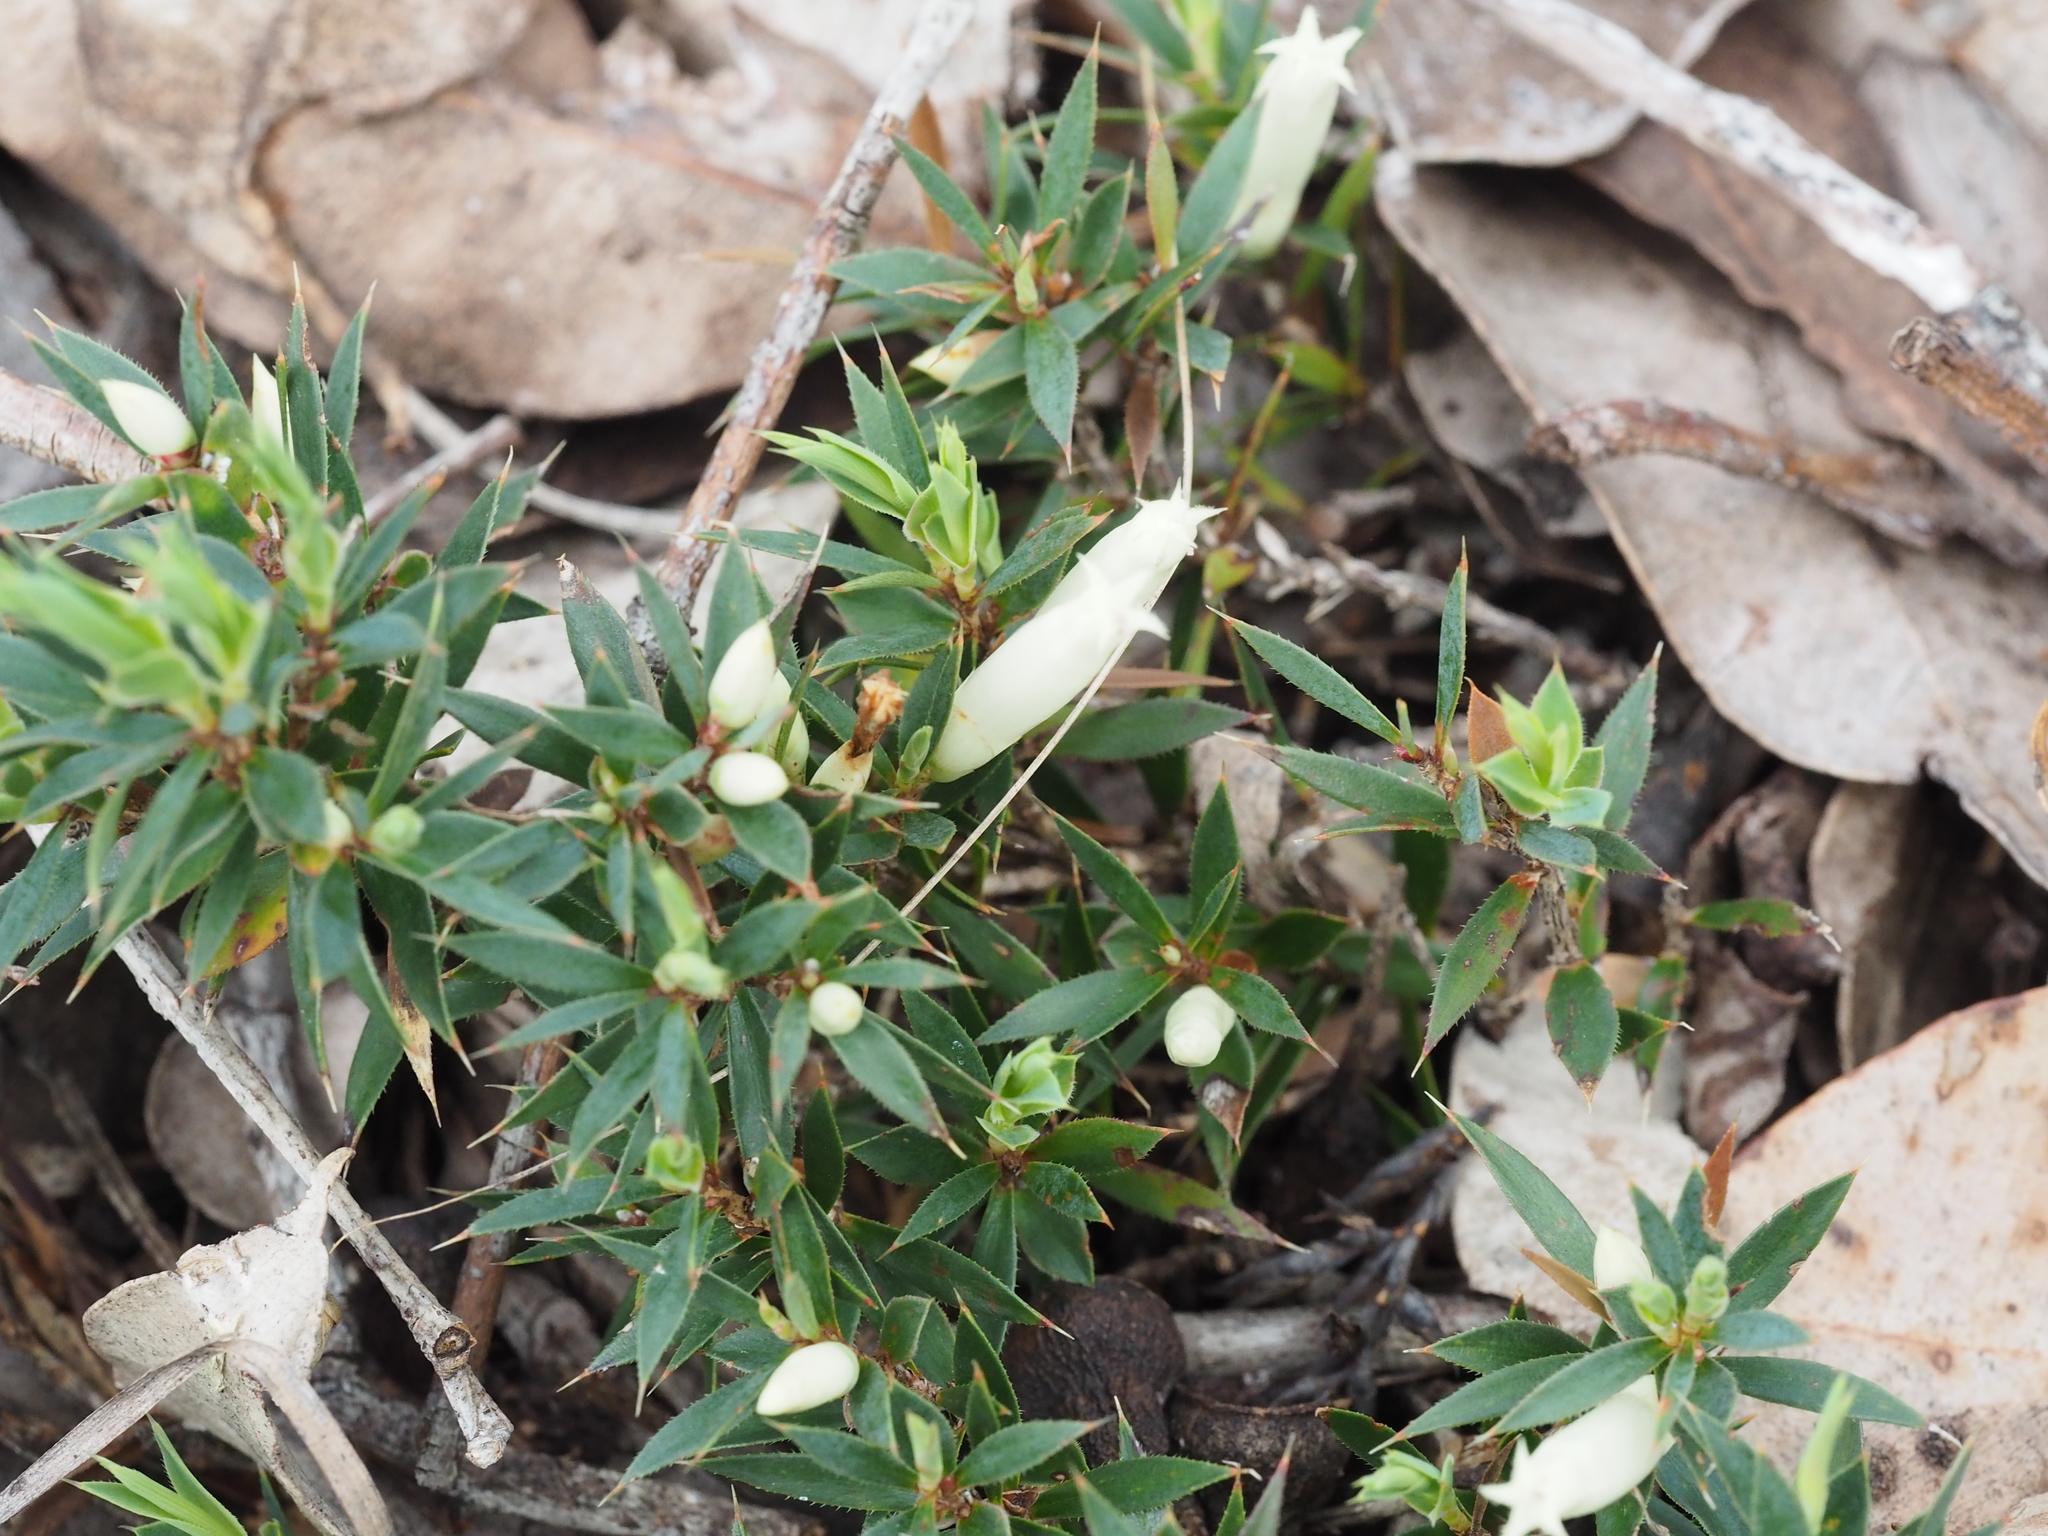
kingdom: Plantae
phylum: Tracheophyta
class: Magnoliopsida
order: Ericales
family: Ericaceae
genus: Styphelia
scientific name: Styphelia pallida
